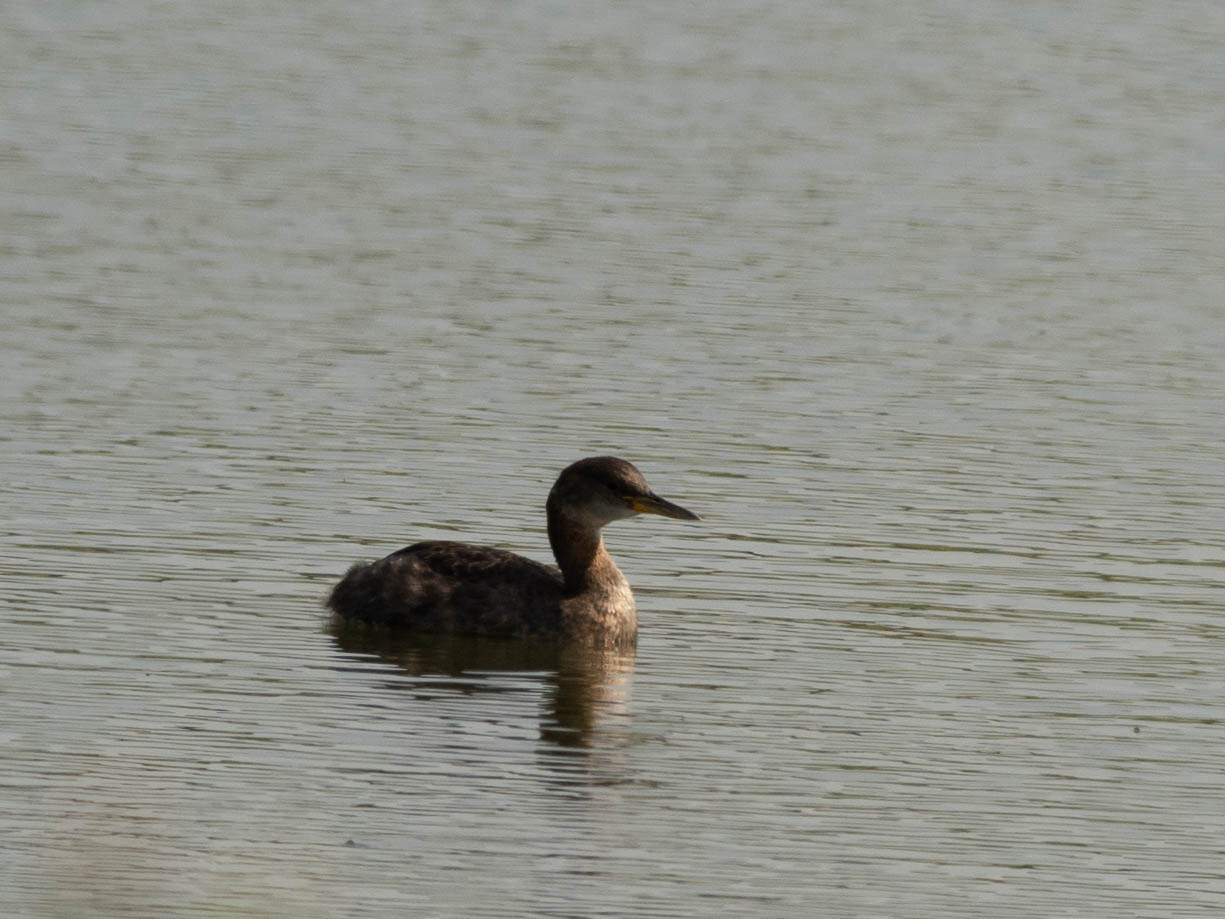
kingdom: Animalia
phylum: Chordata
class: Aves
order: Podicipediformes
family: Podicipedidae
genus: Podiceps
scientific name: Podiceps grisegena
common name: Red-necked grebe
